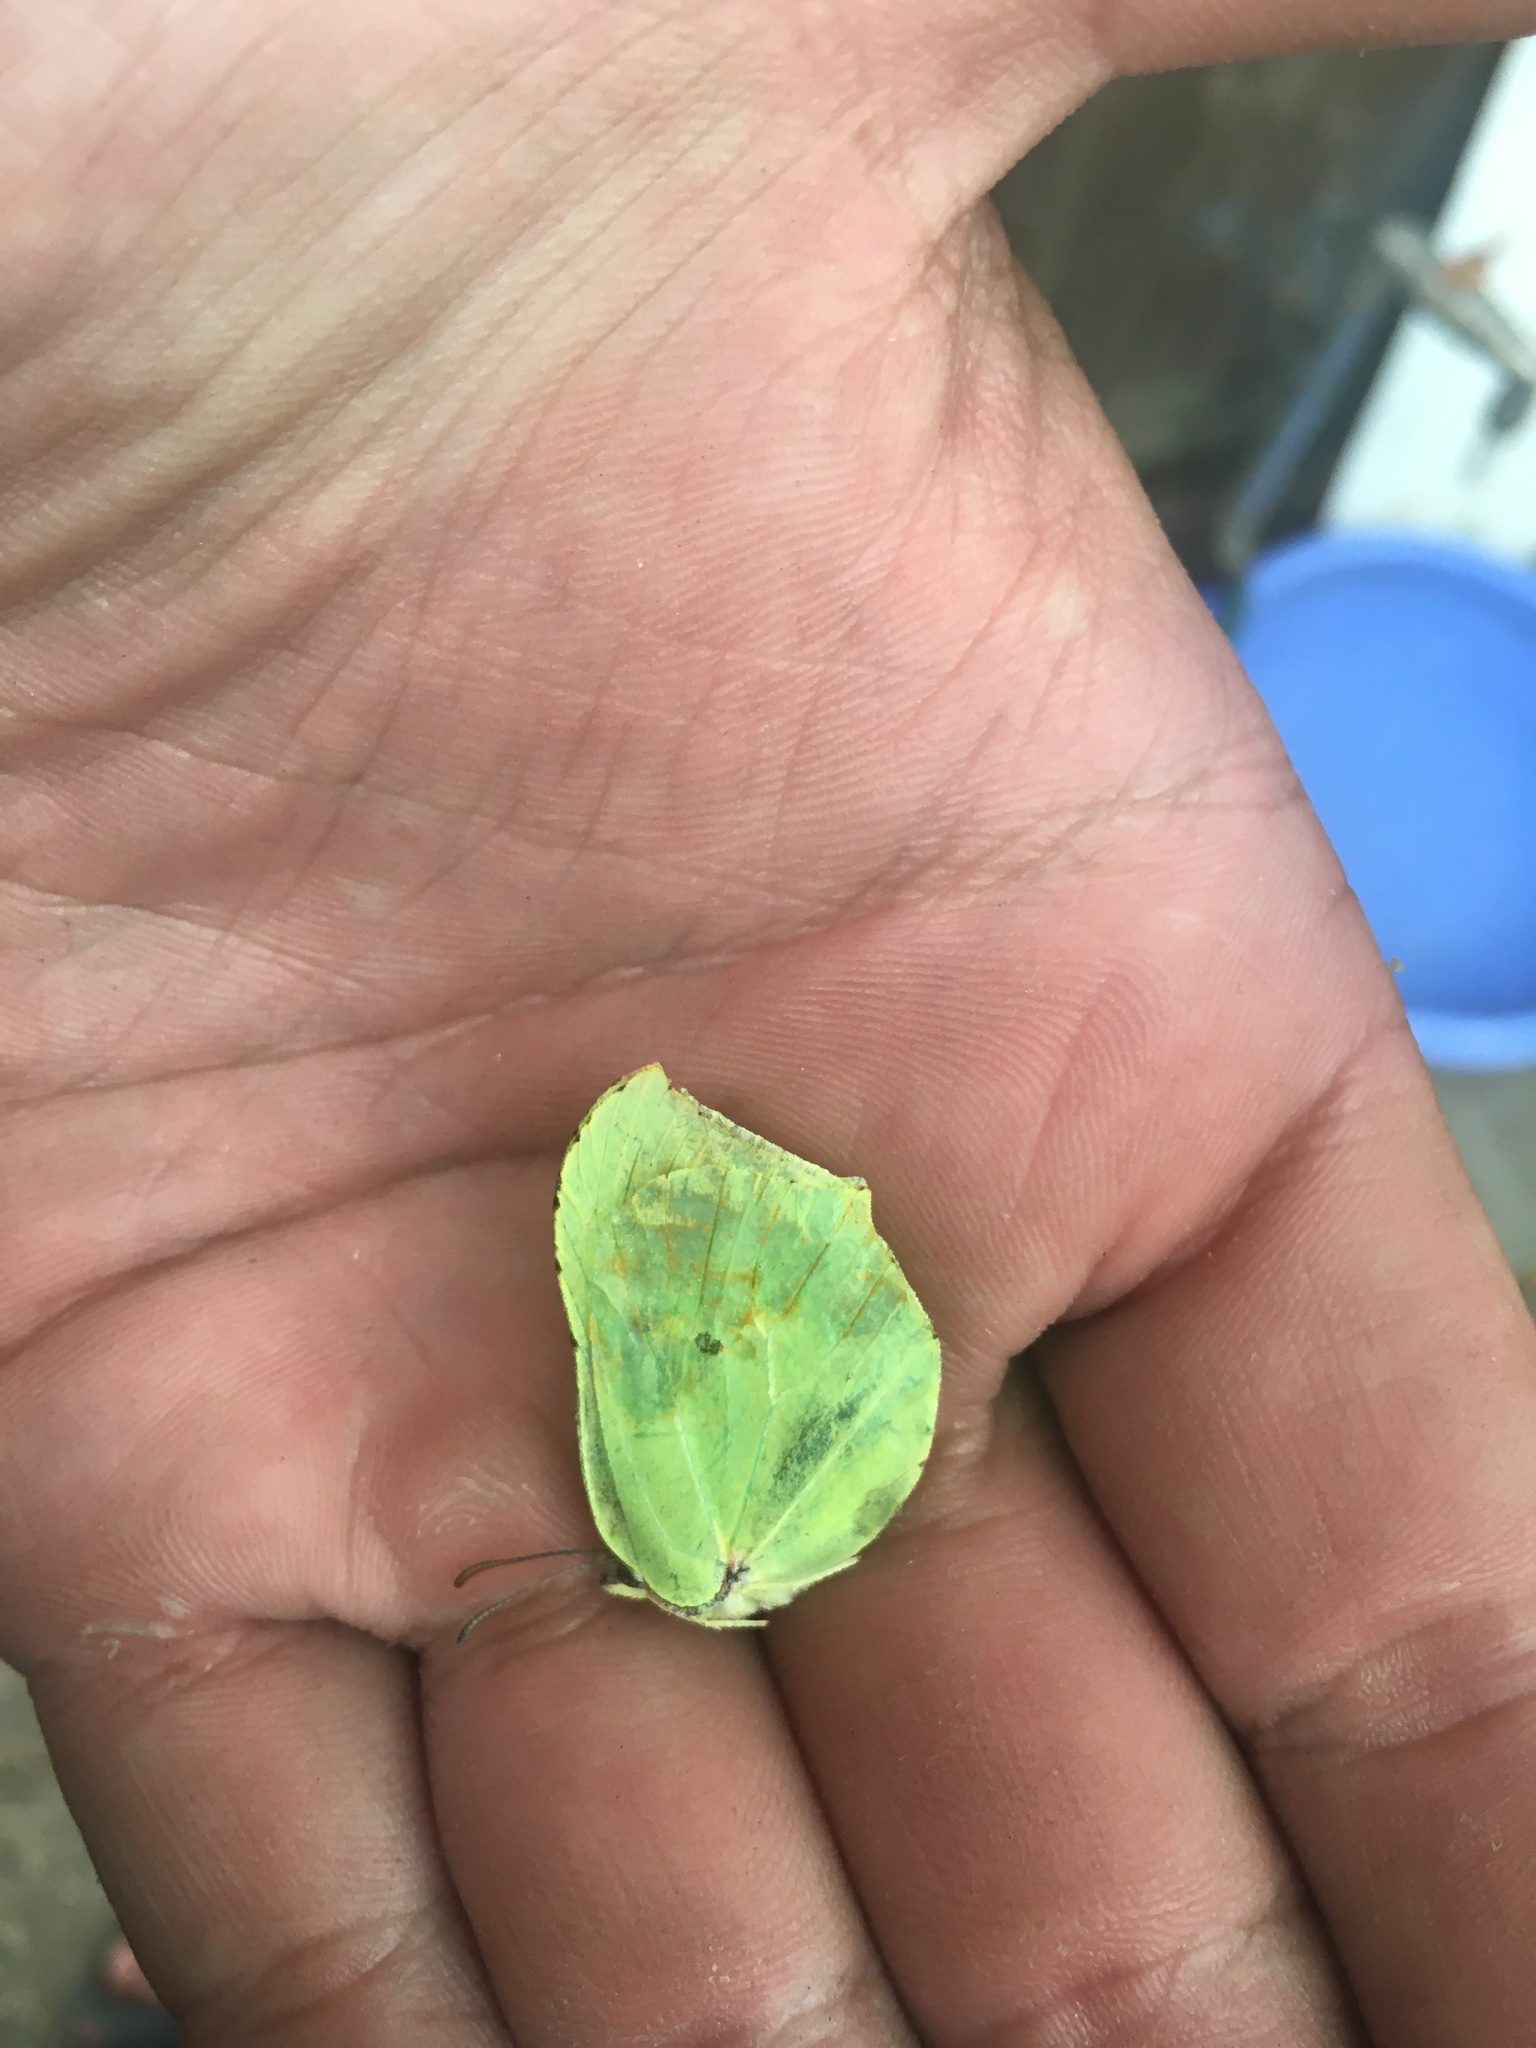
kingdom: Animalia
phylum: Arthropoda
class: Insecta
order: Lepidoptera
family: Pieridae
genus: Gonepteryx
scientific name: Gonepteryx rhamni
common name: Brimstone
